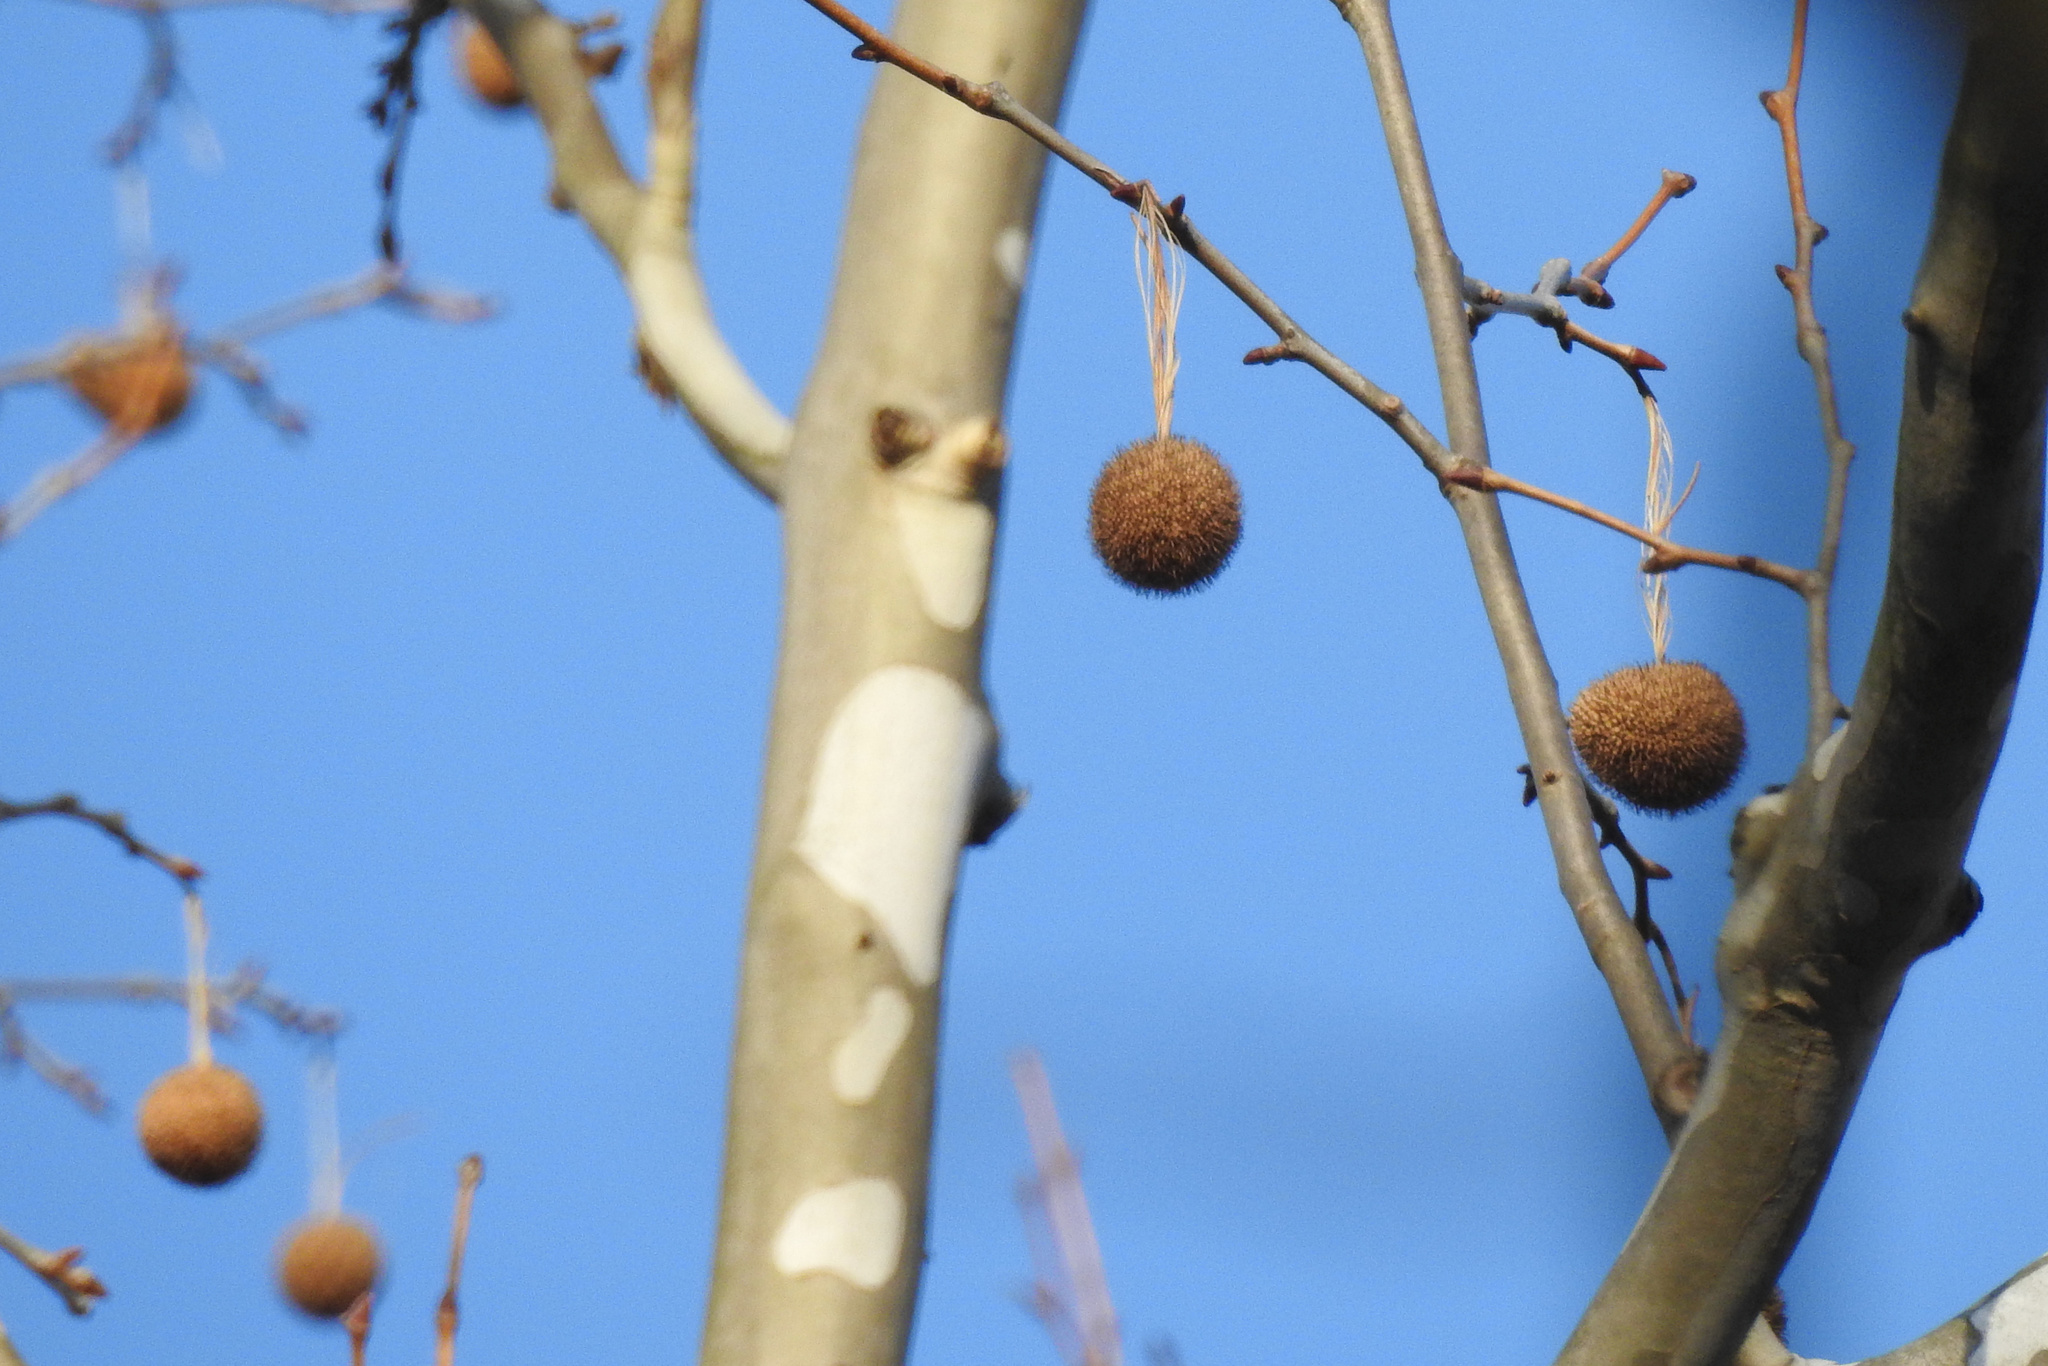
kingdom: Plantae
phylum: Tracheophyta
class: Magnoliopsida
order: Proteales
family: Platanaceae
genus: Platanus
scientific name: Platanus occidentalis
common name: American sycamore
